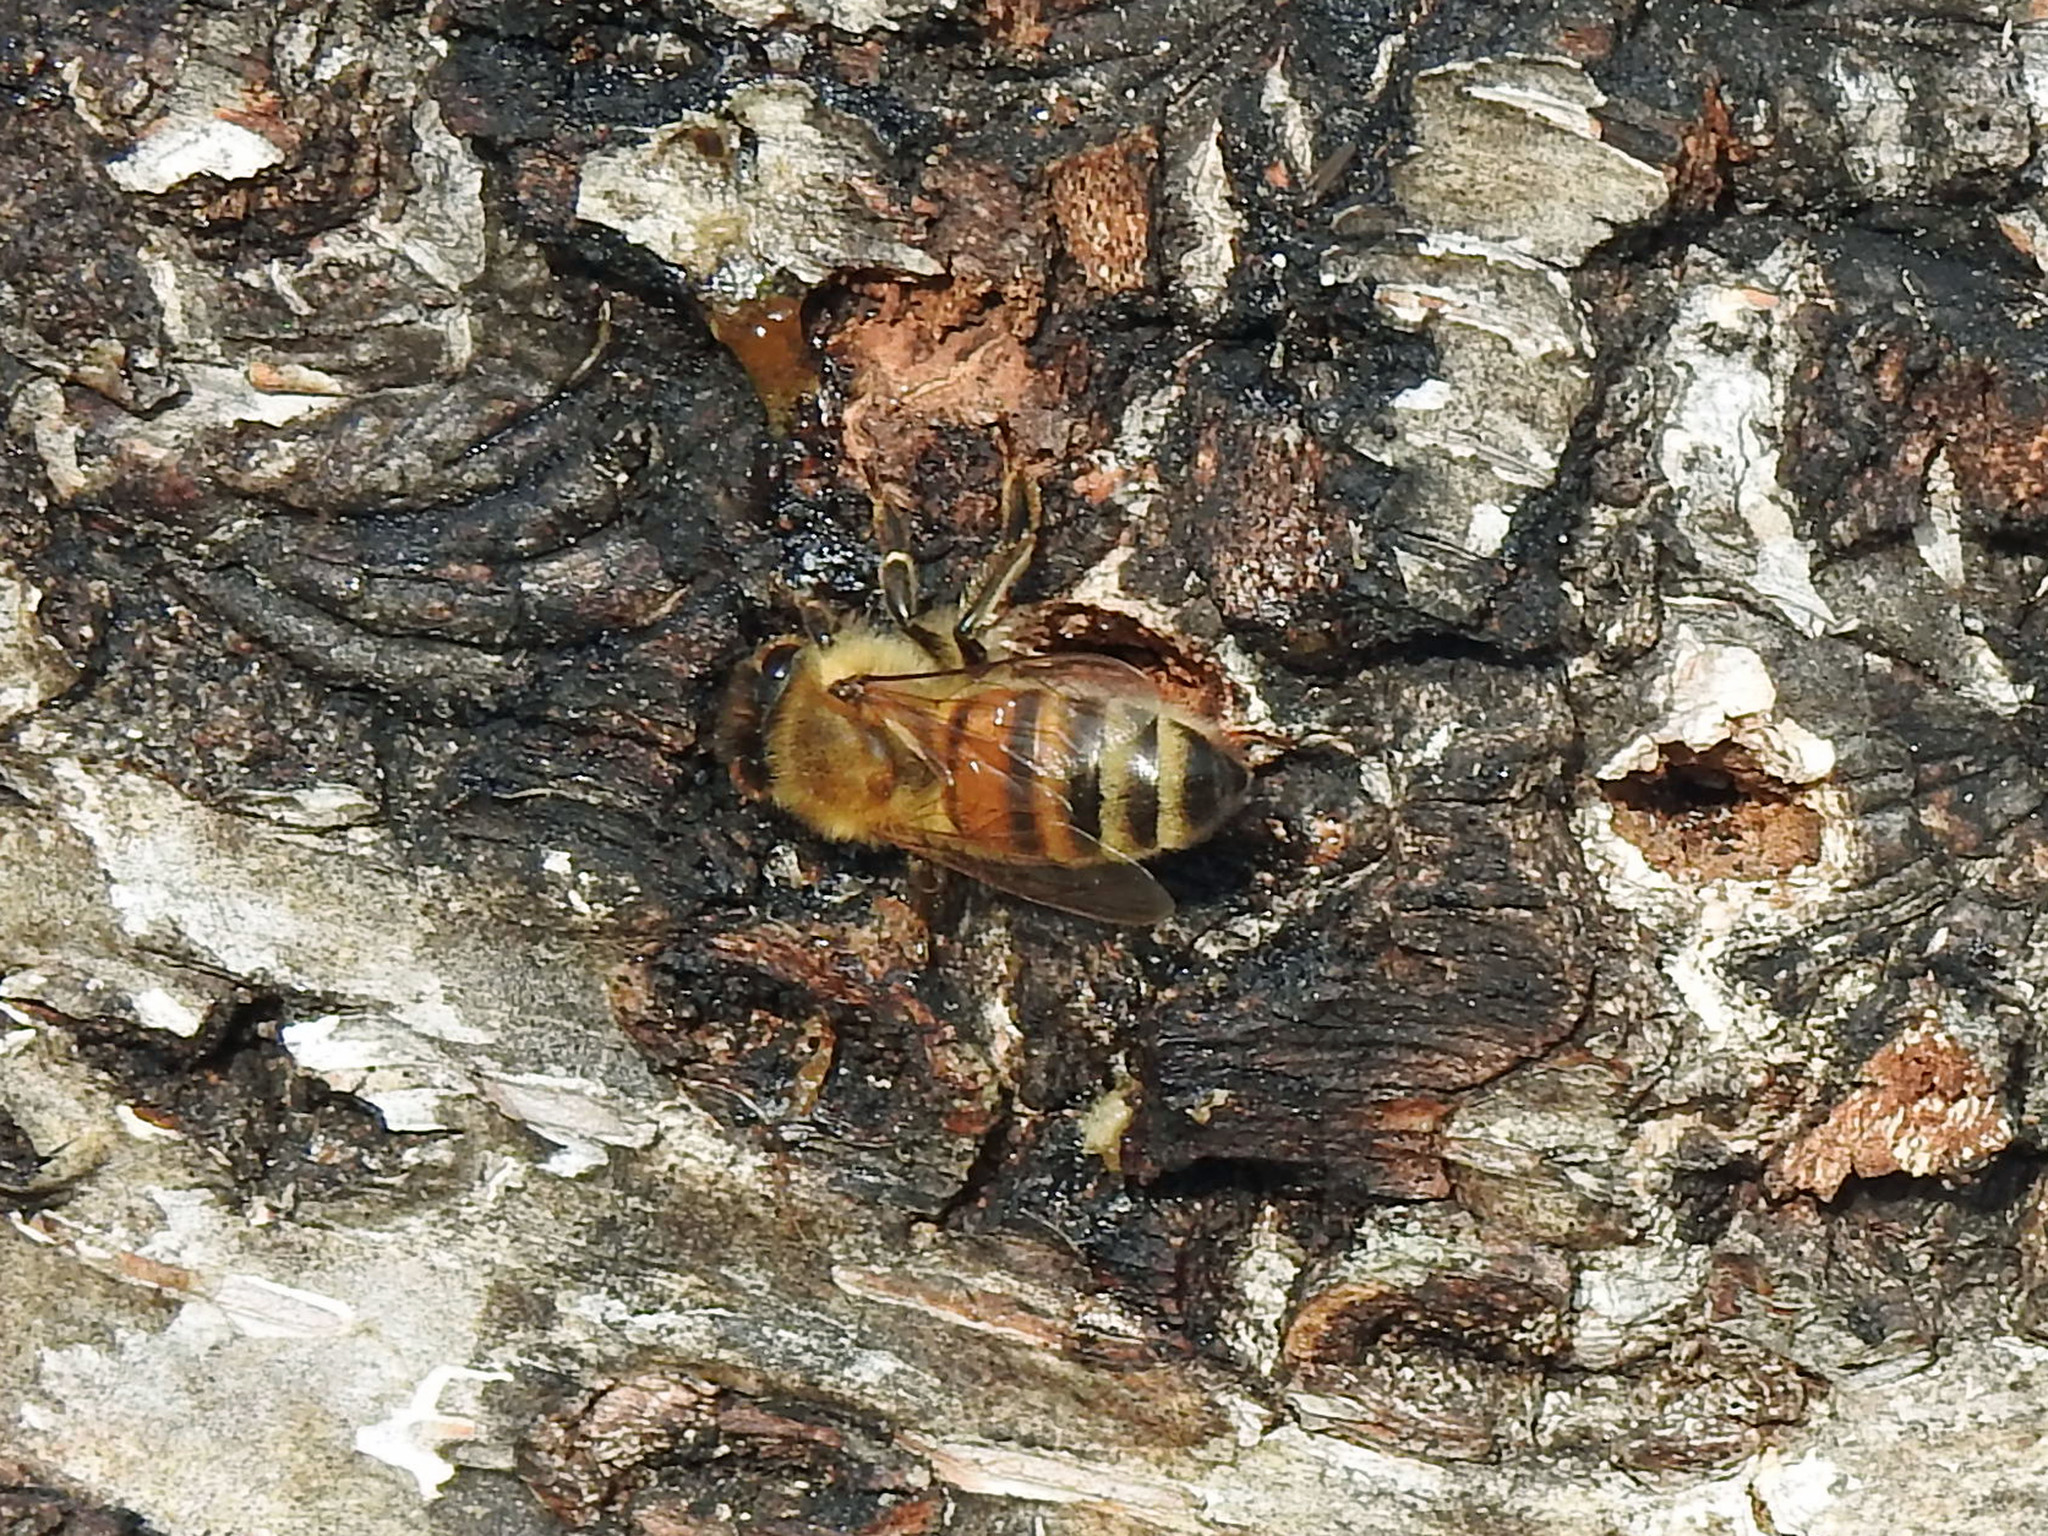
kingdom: Animalia
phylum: Arthropoda
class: Insecta
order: Hymenoptera
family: Apidae
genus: Apis
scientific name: Apis mellifera
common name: Honey bee
